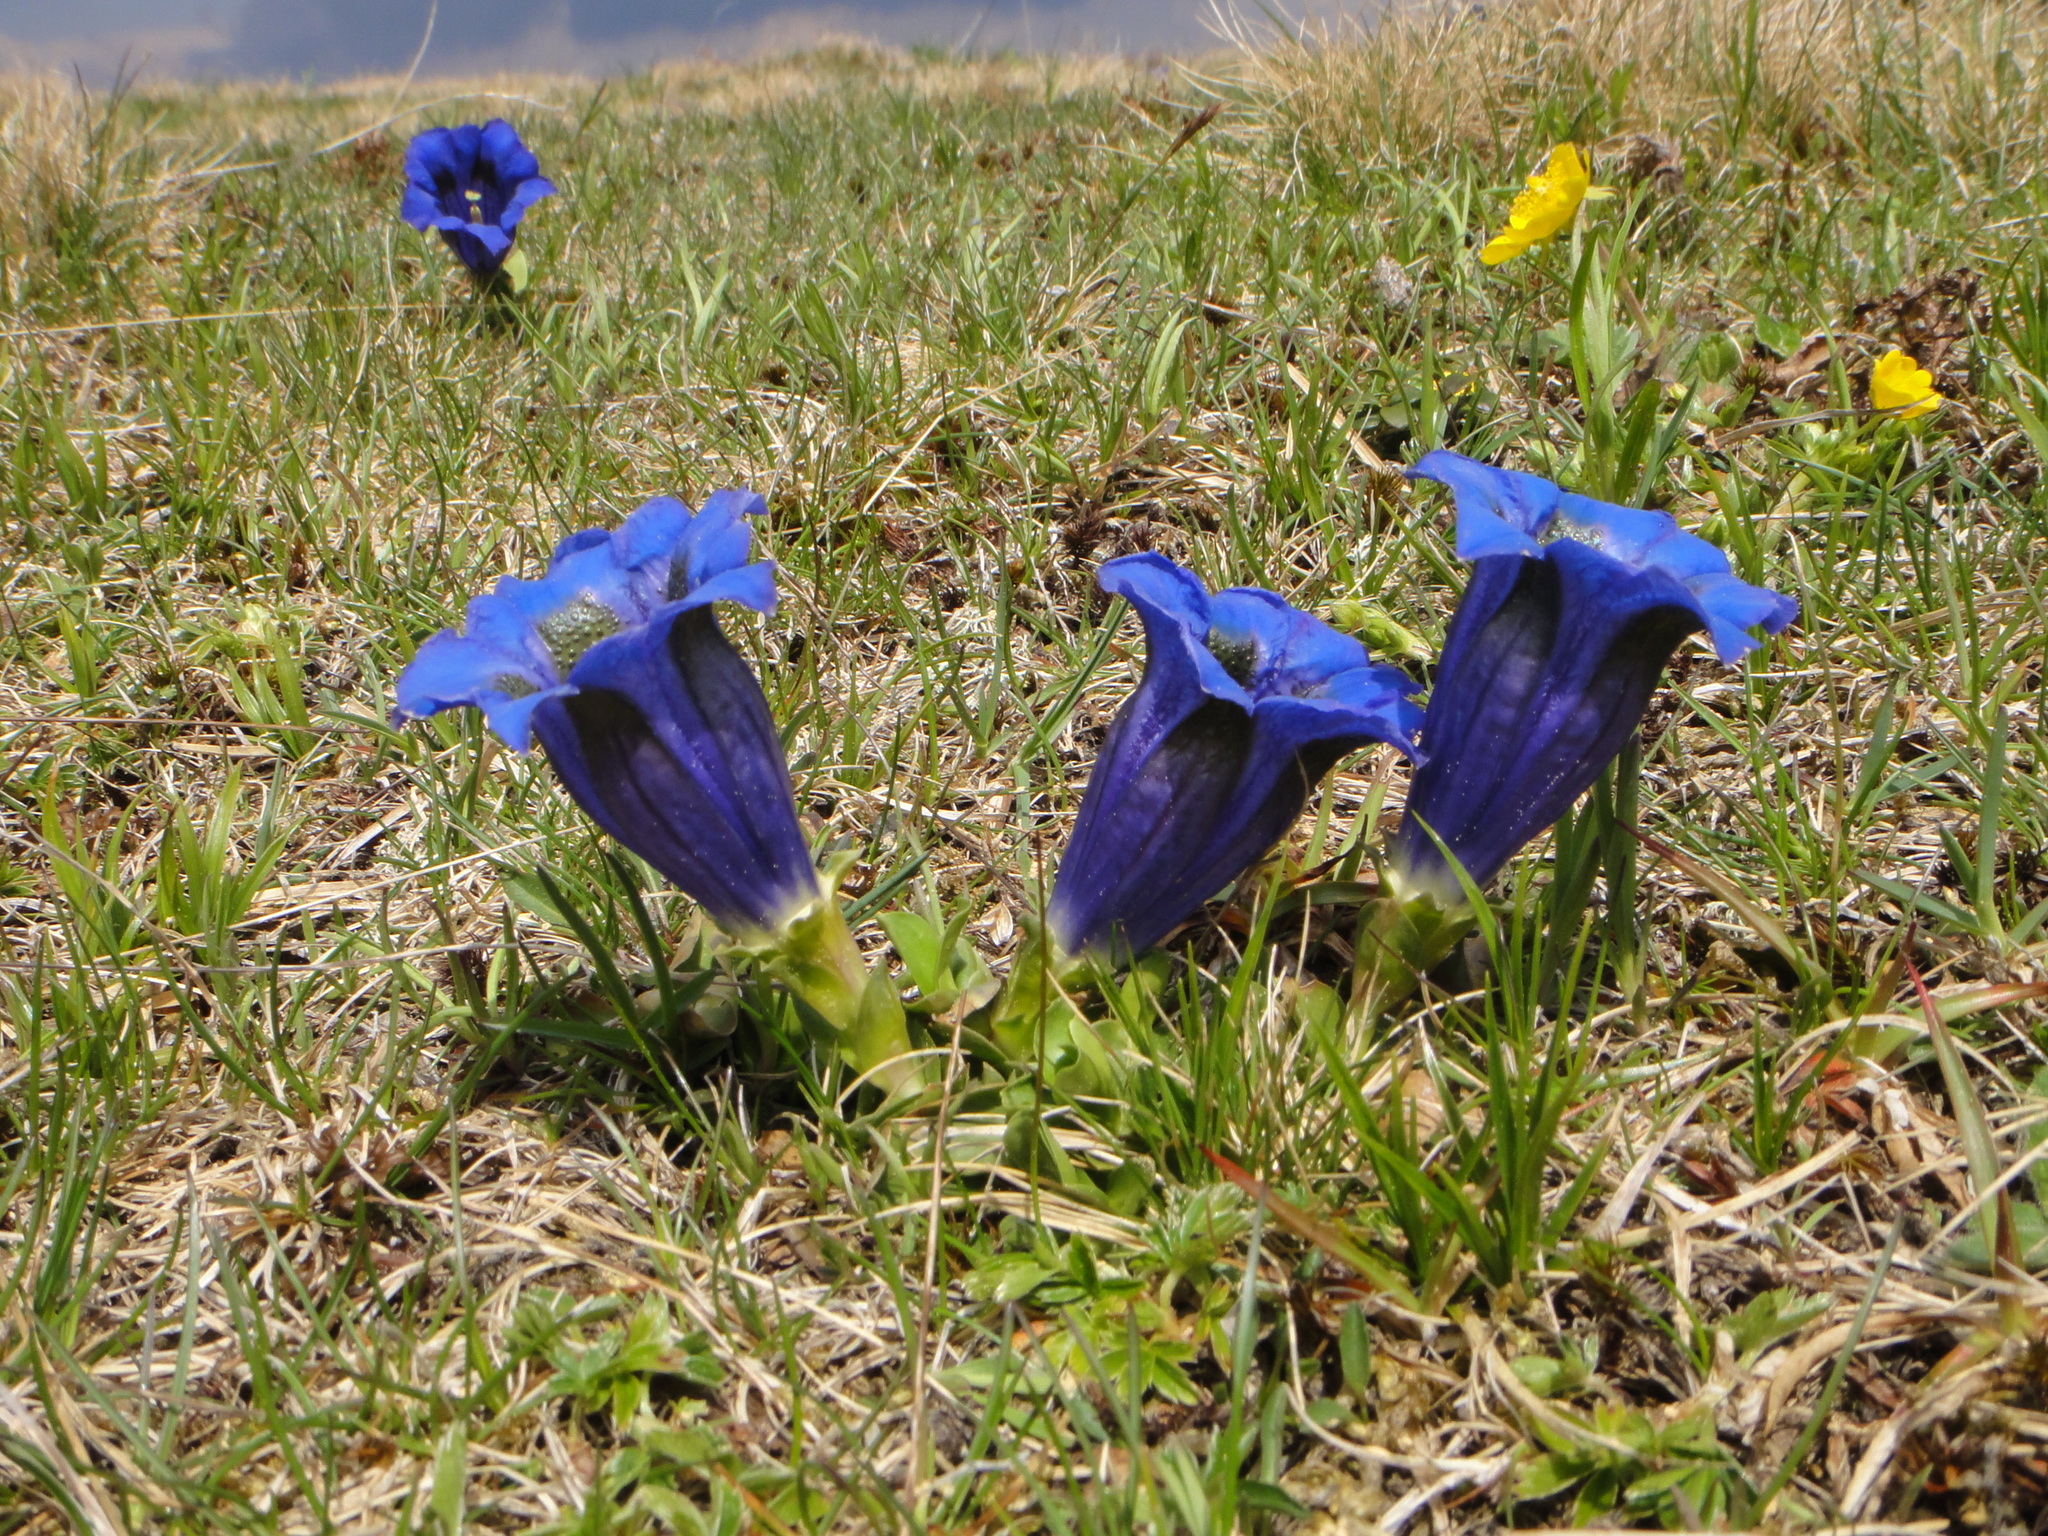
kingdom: Plantae
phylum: Tracheophyta
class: Magnoliopsida
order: Gentianales
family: Gentianaceae
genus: Gentiana
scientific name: Gentiana acaulis
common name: Trumpet gentian
